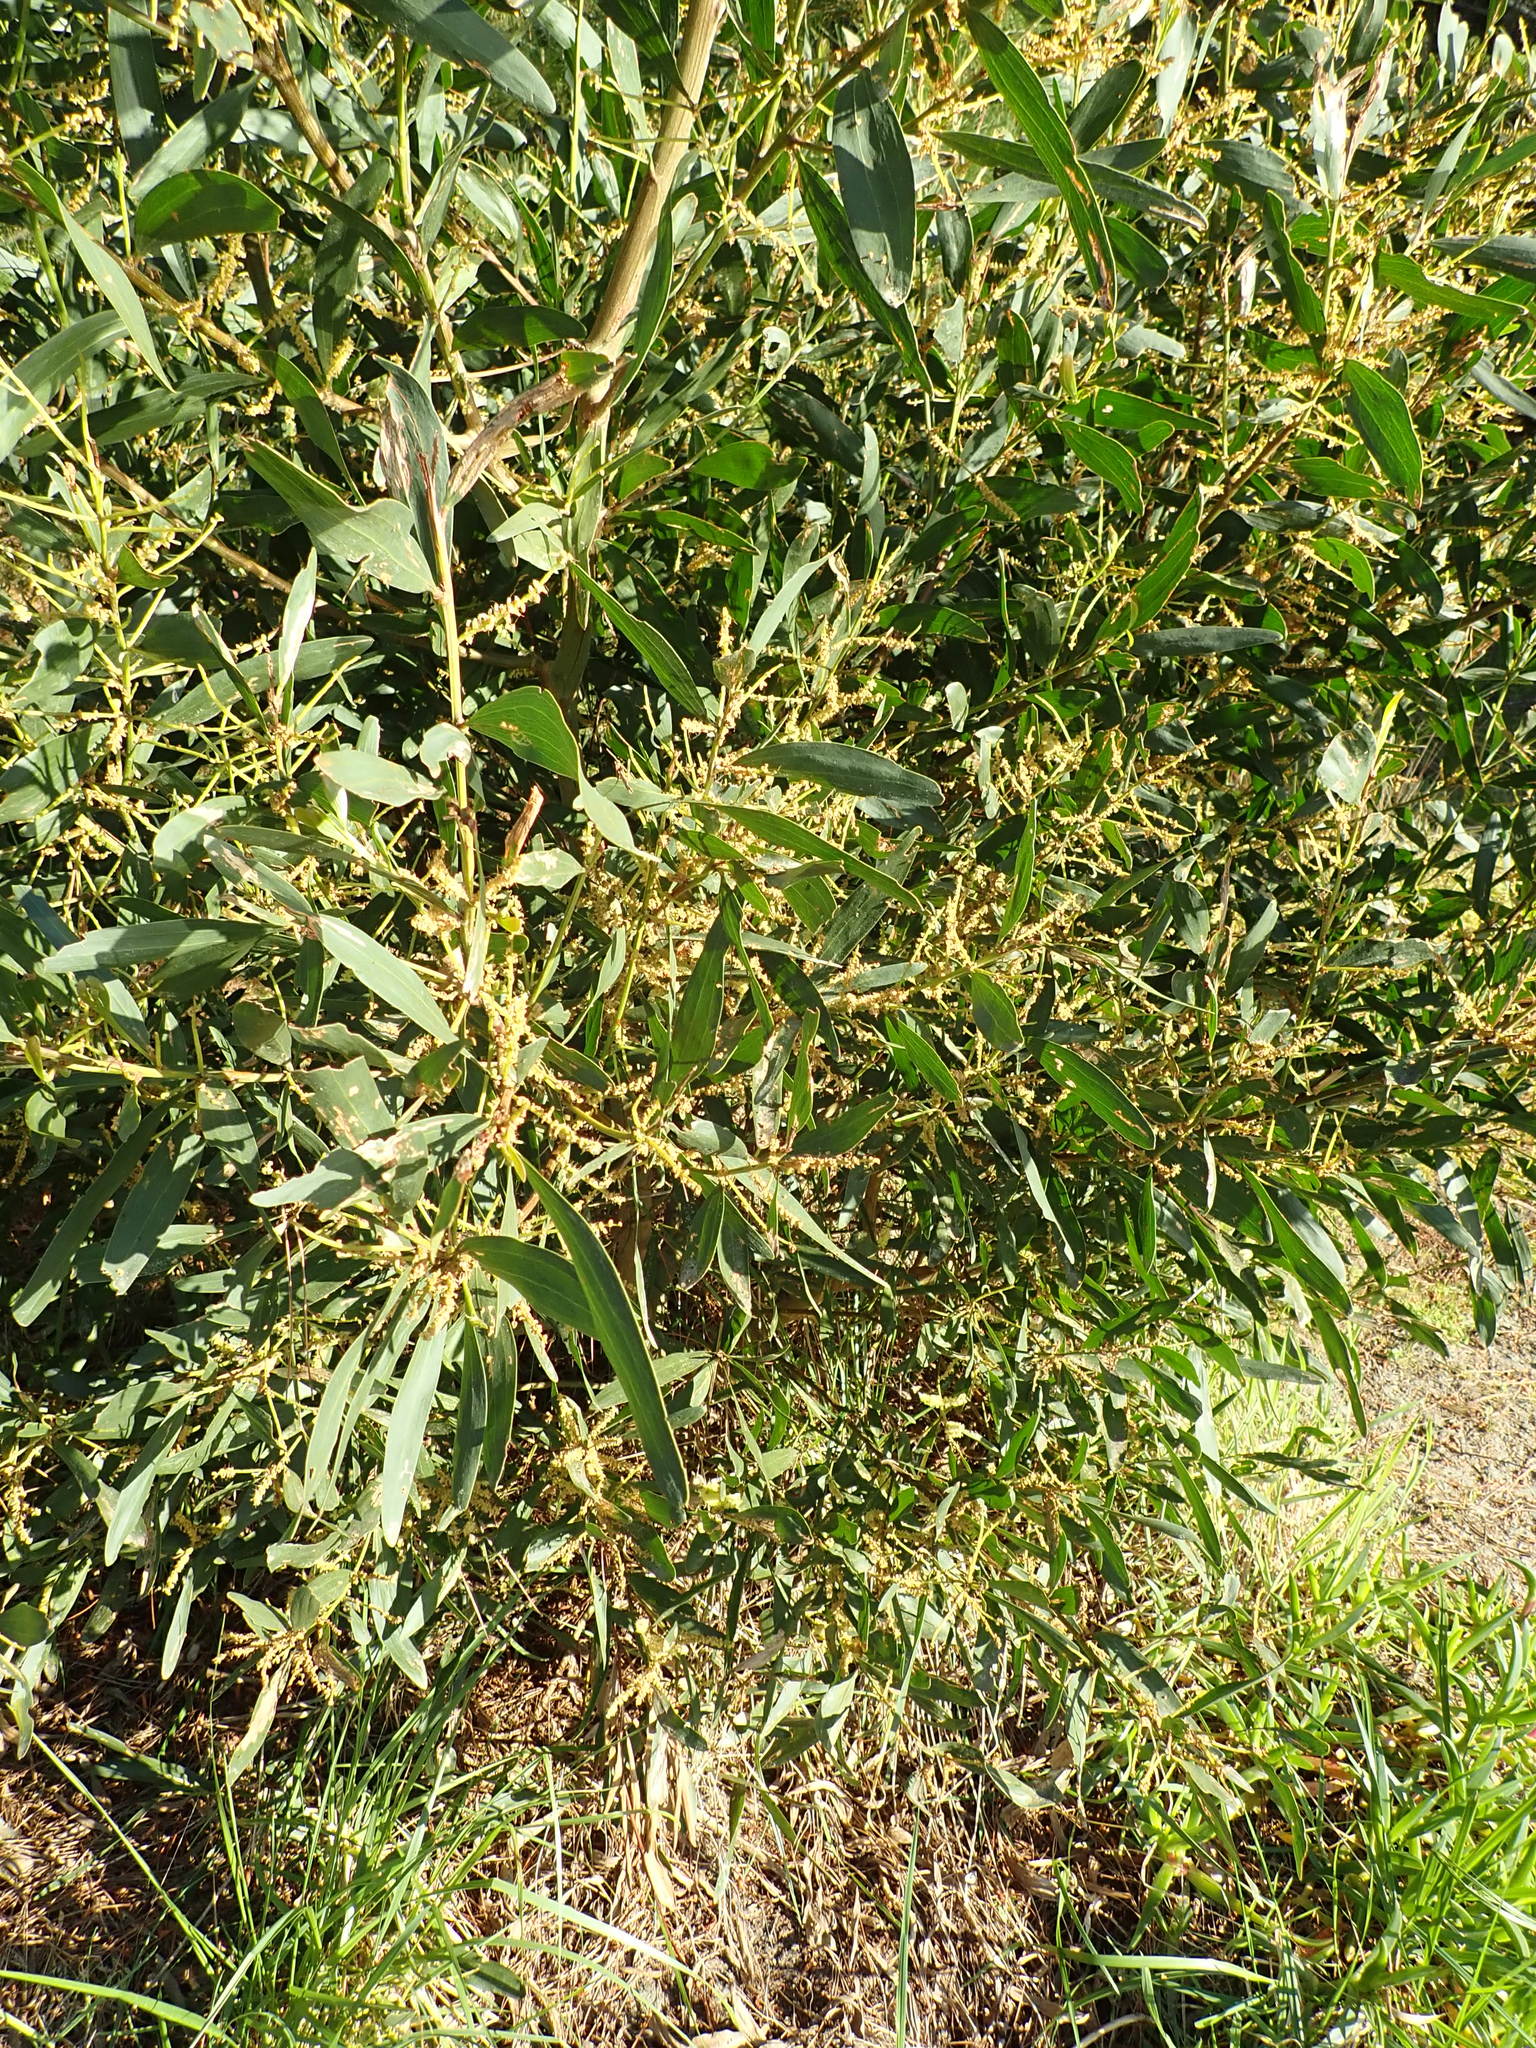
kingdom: Plantae
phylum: Tracheophyta
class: Magnoliopsida
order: Fabales
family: Fabaceae
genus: Acacia
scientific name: Acacia longifolia
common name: Sydney golden wattle
